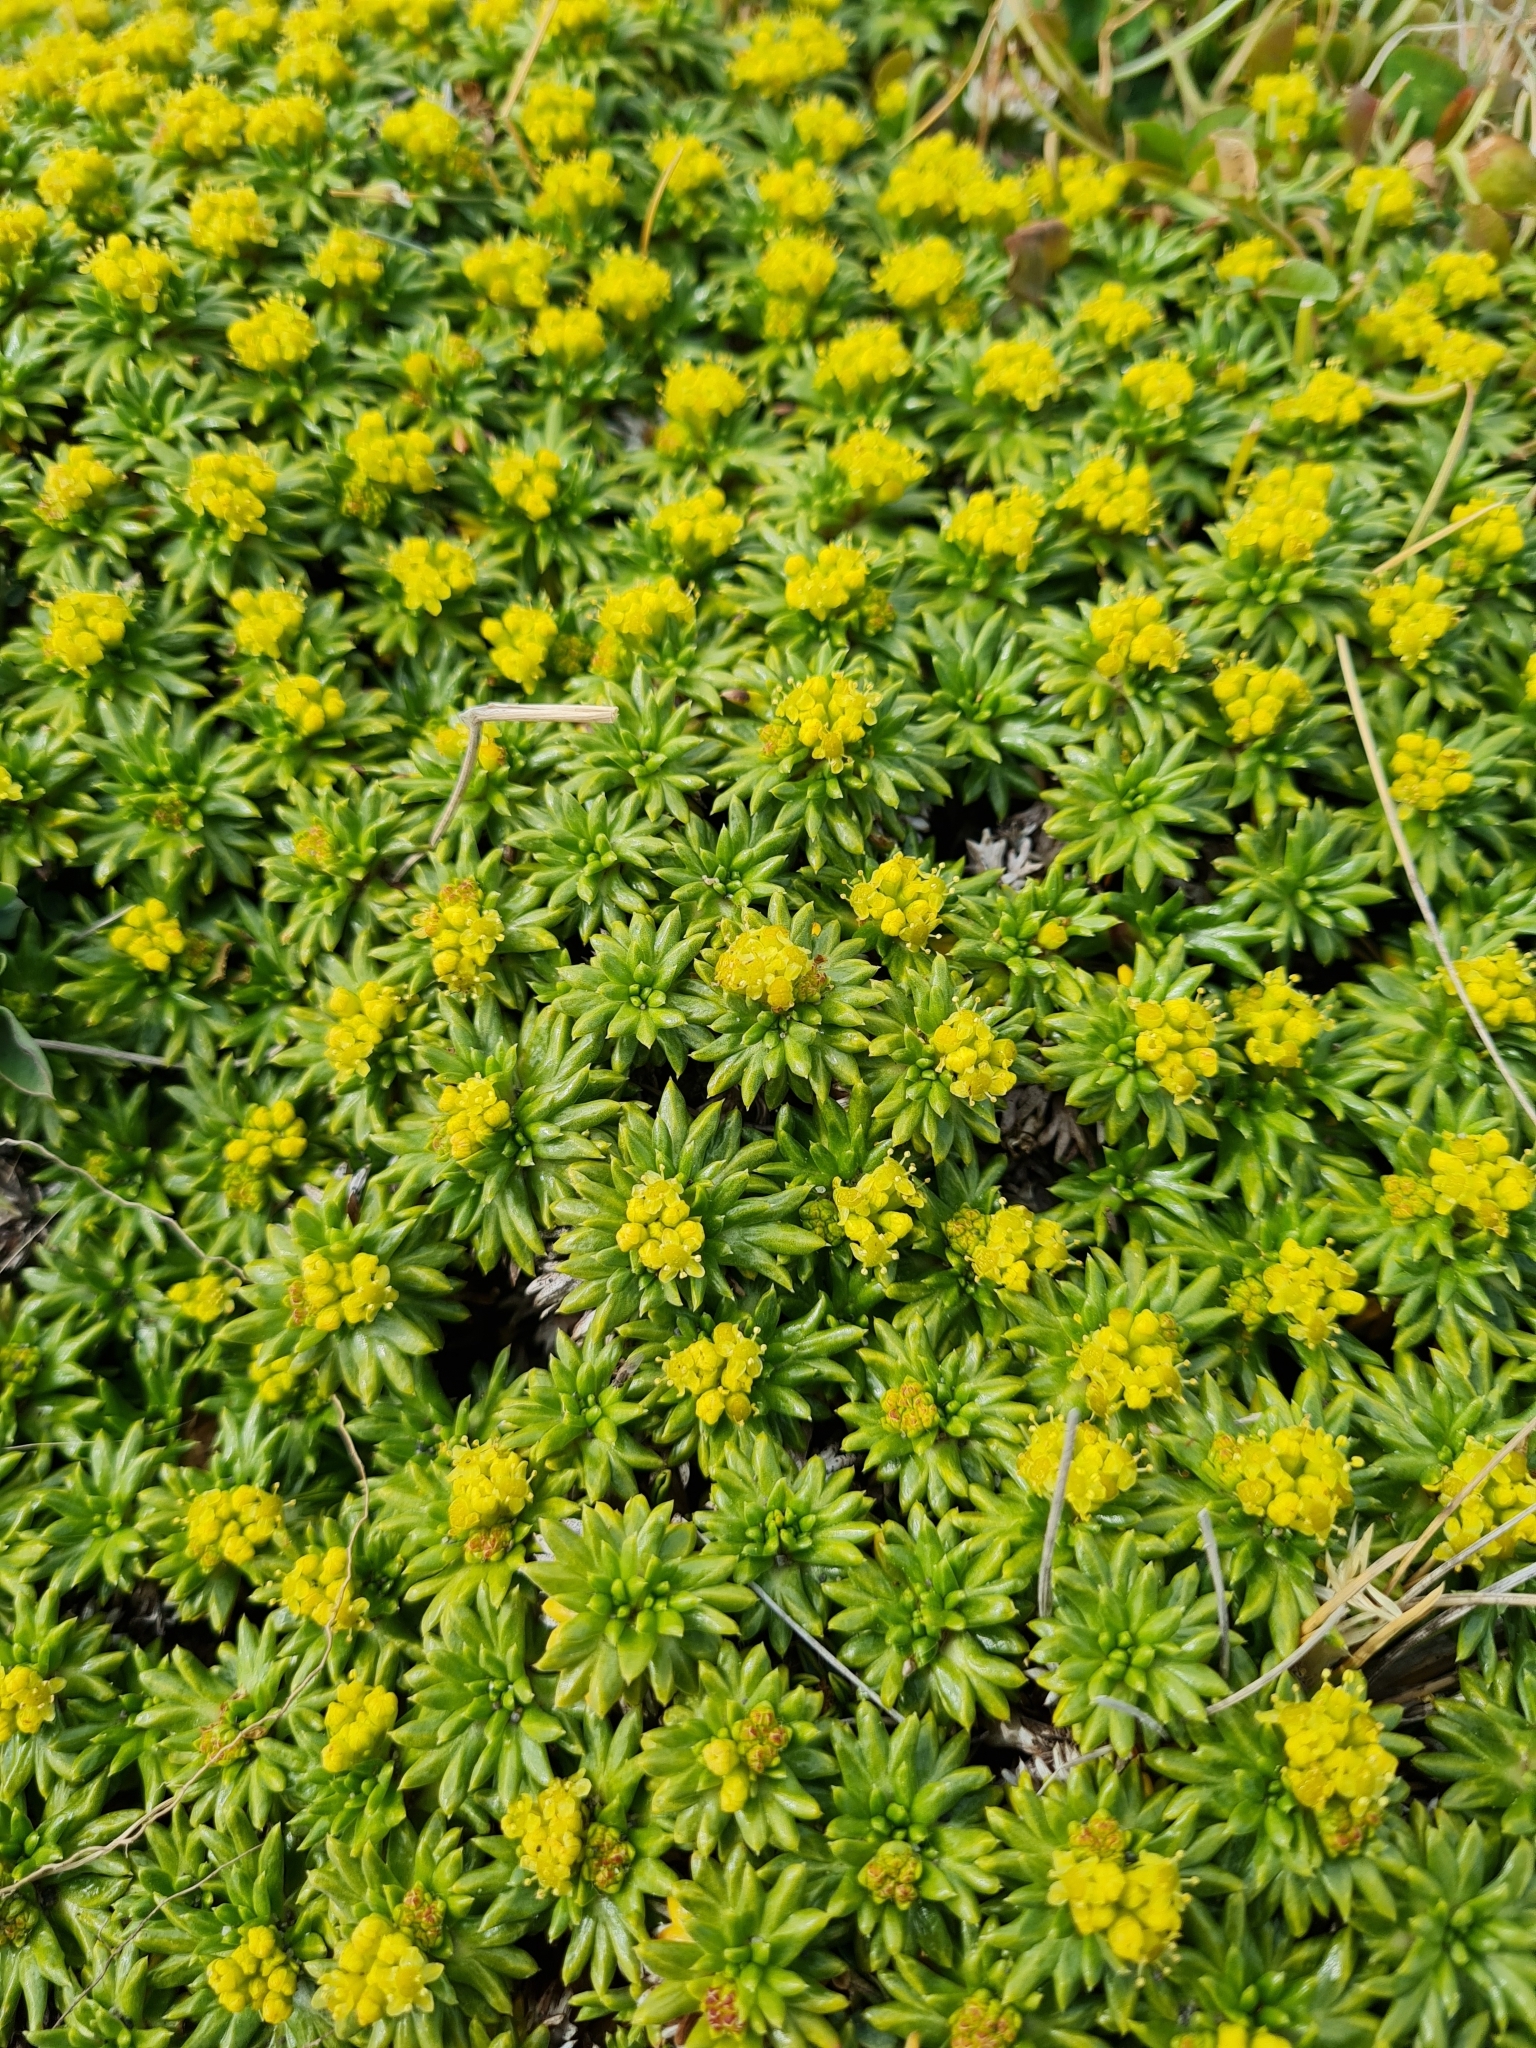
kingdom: Plantae
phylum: Tracheophyta
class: Magnoliopsida
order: Apiales
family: Apiaceae
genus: Azorella
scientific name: Azorella trifurcata
